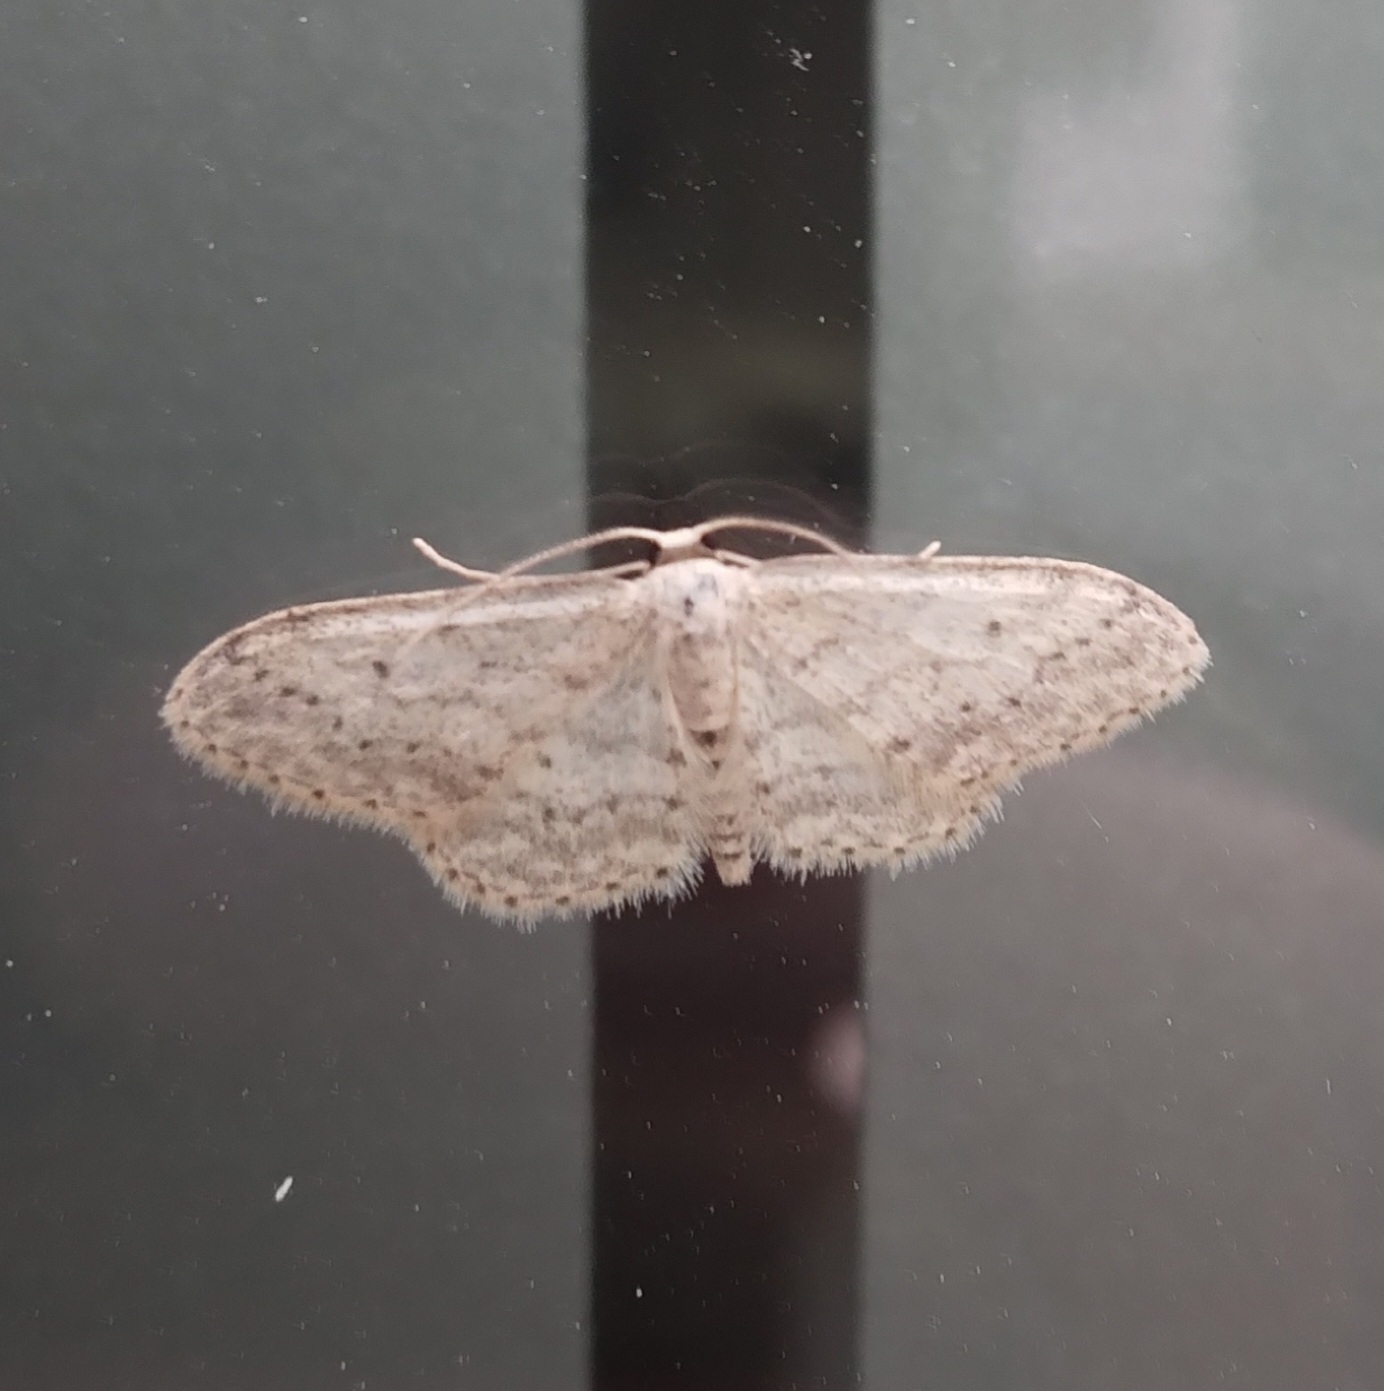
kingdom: Animalia
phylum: Arthropoda
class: Insecta
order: Lepidoptera
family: Geometridae
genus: Idaea
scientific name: Idaea seriata
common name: Small dusty wave
